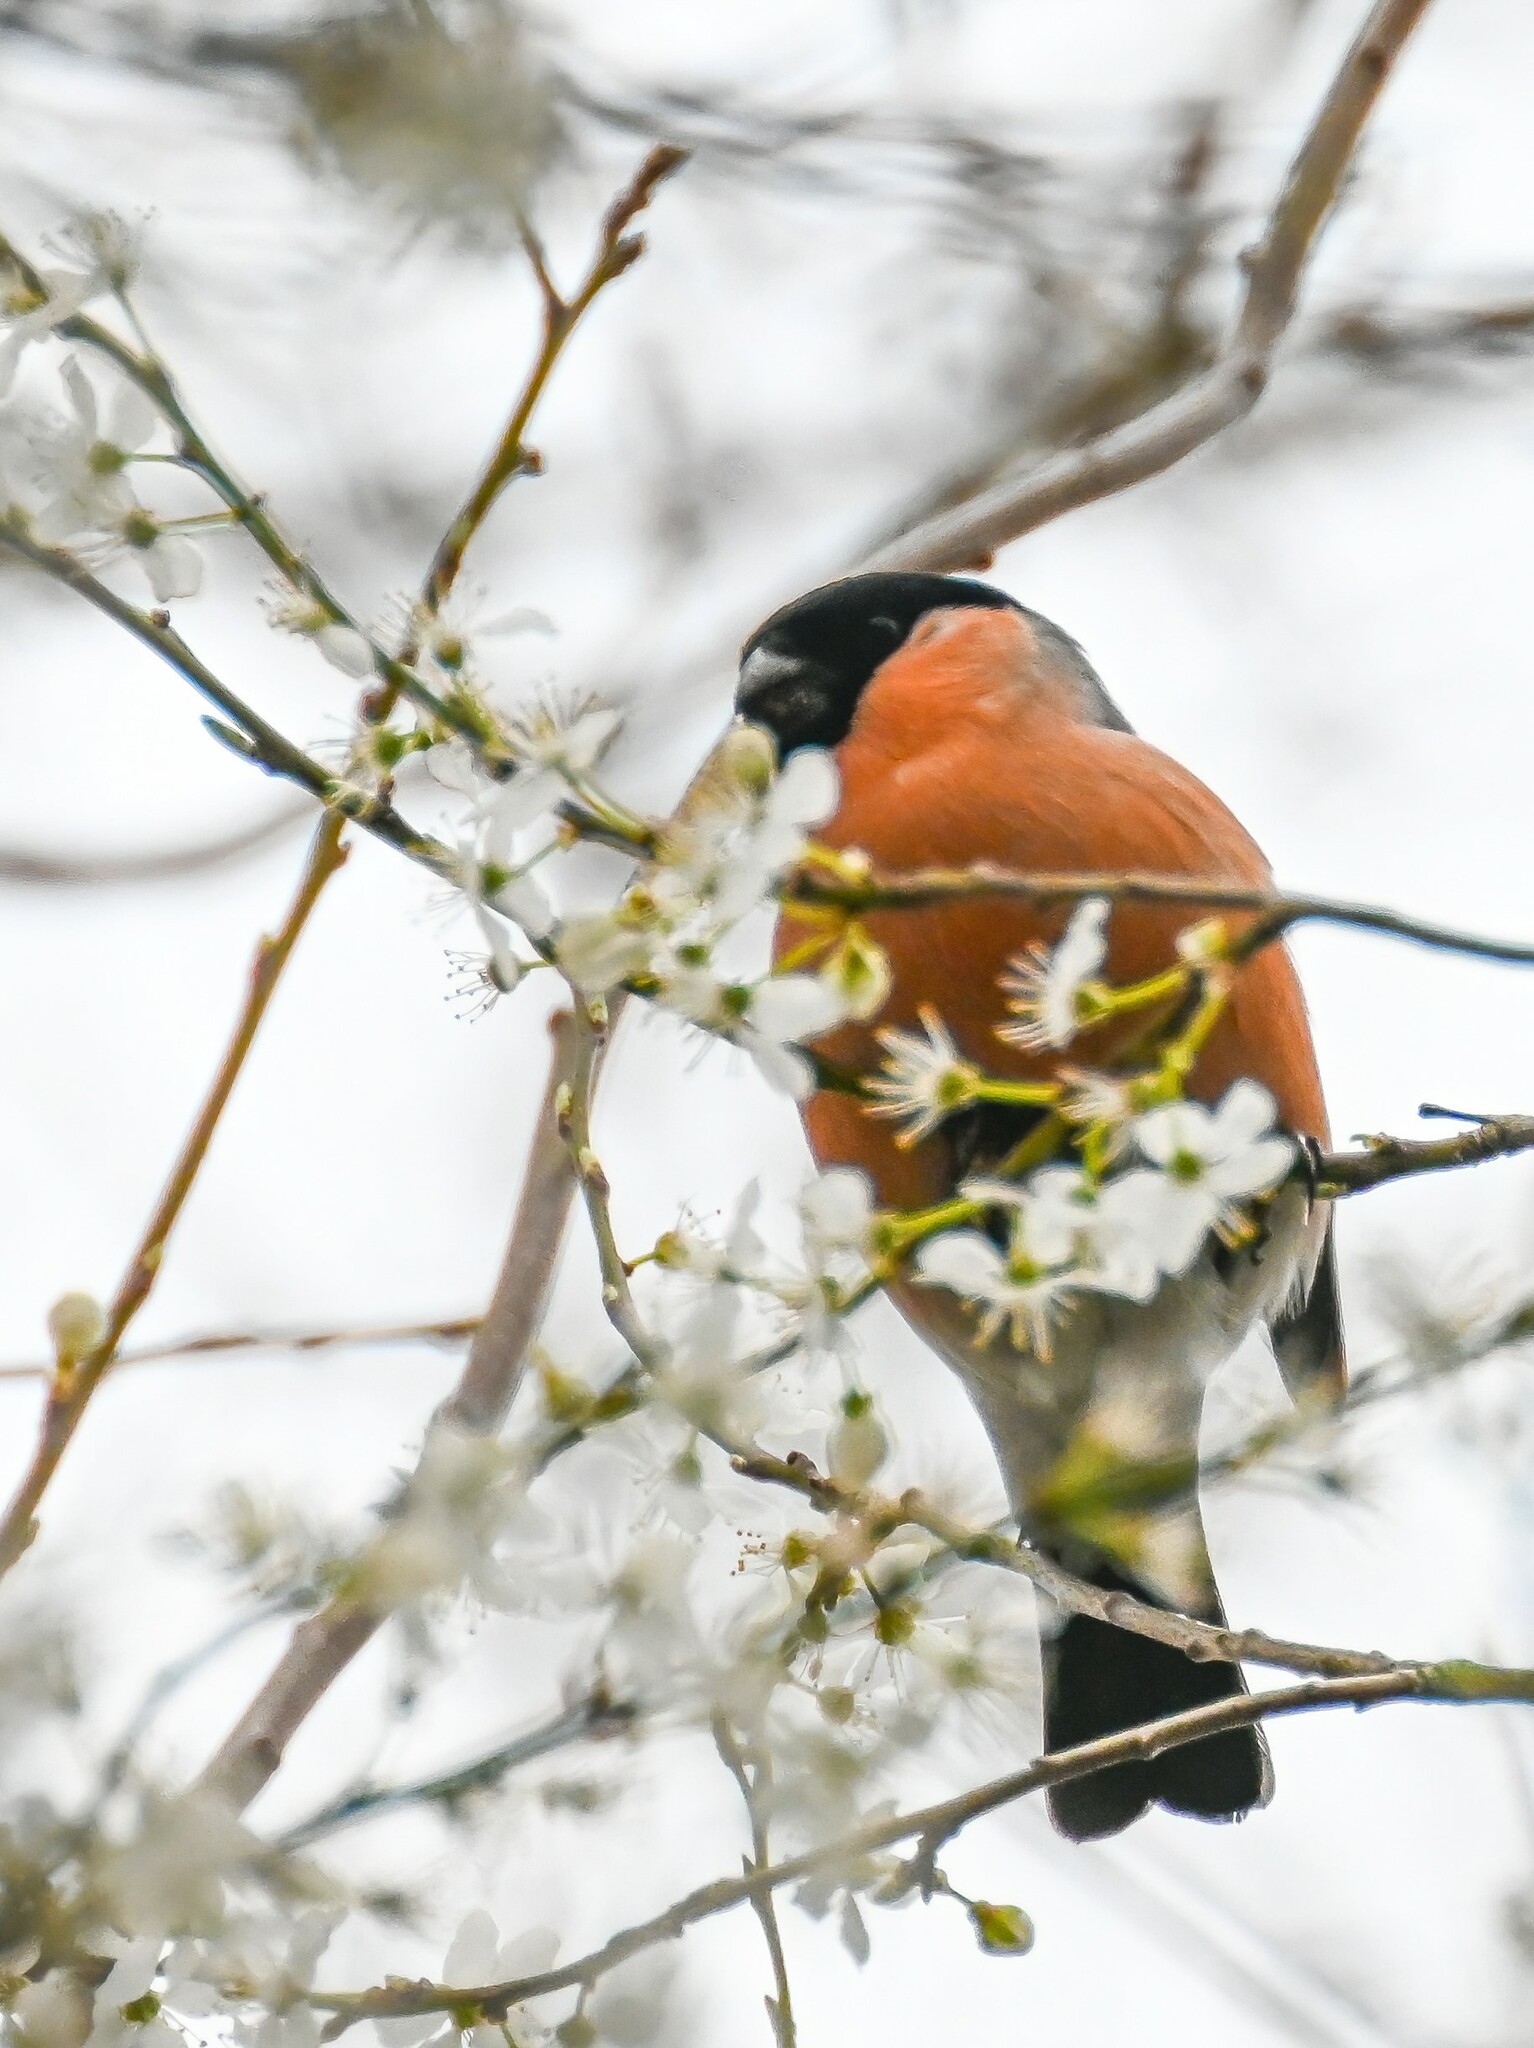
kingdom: Animalia
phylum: Chordata
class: Aves
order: Passeriformes
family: Fringillidae
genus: Pyrrhula
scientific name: Pyrrhula pyrrhula
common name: Eurasian bullfinch
